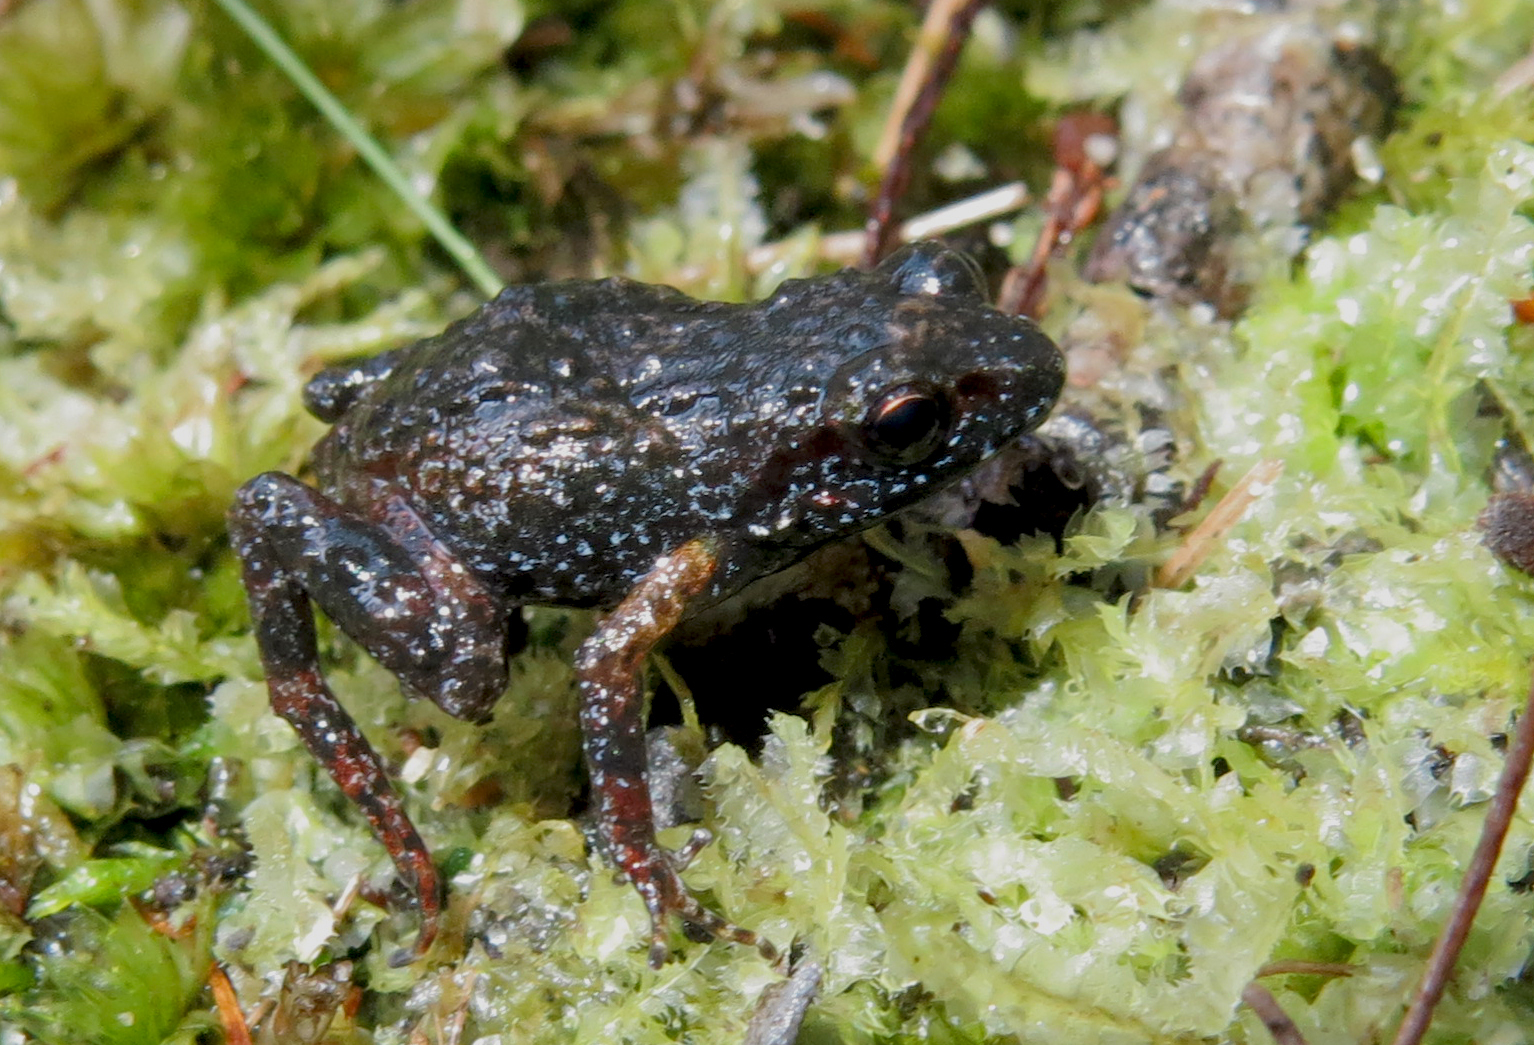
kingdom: Animalia
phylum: Chordata
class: Amphibia
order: Anura
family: Pyxicephalidae
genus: Arthroleptella
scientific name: Arthroleptella drewesii
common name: Drewes' moss frog
